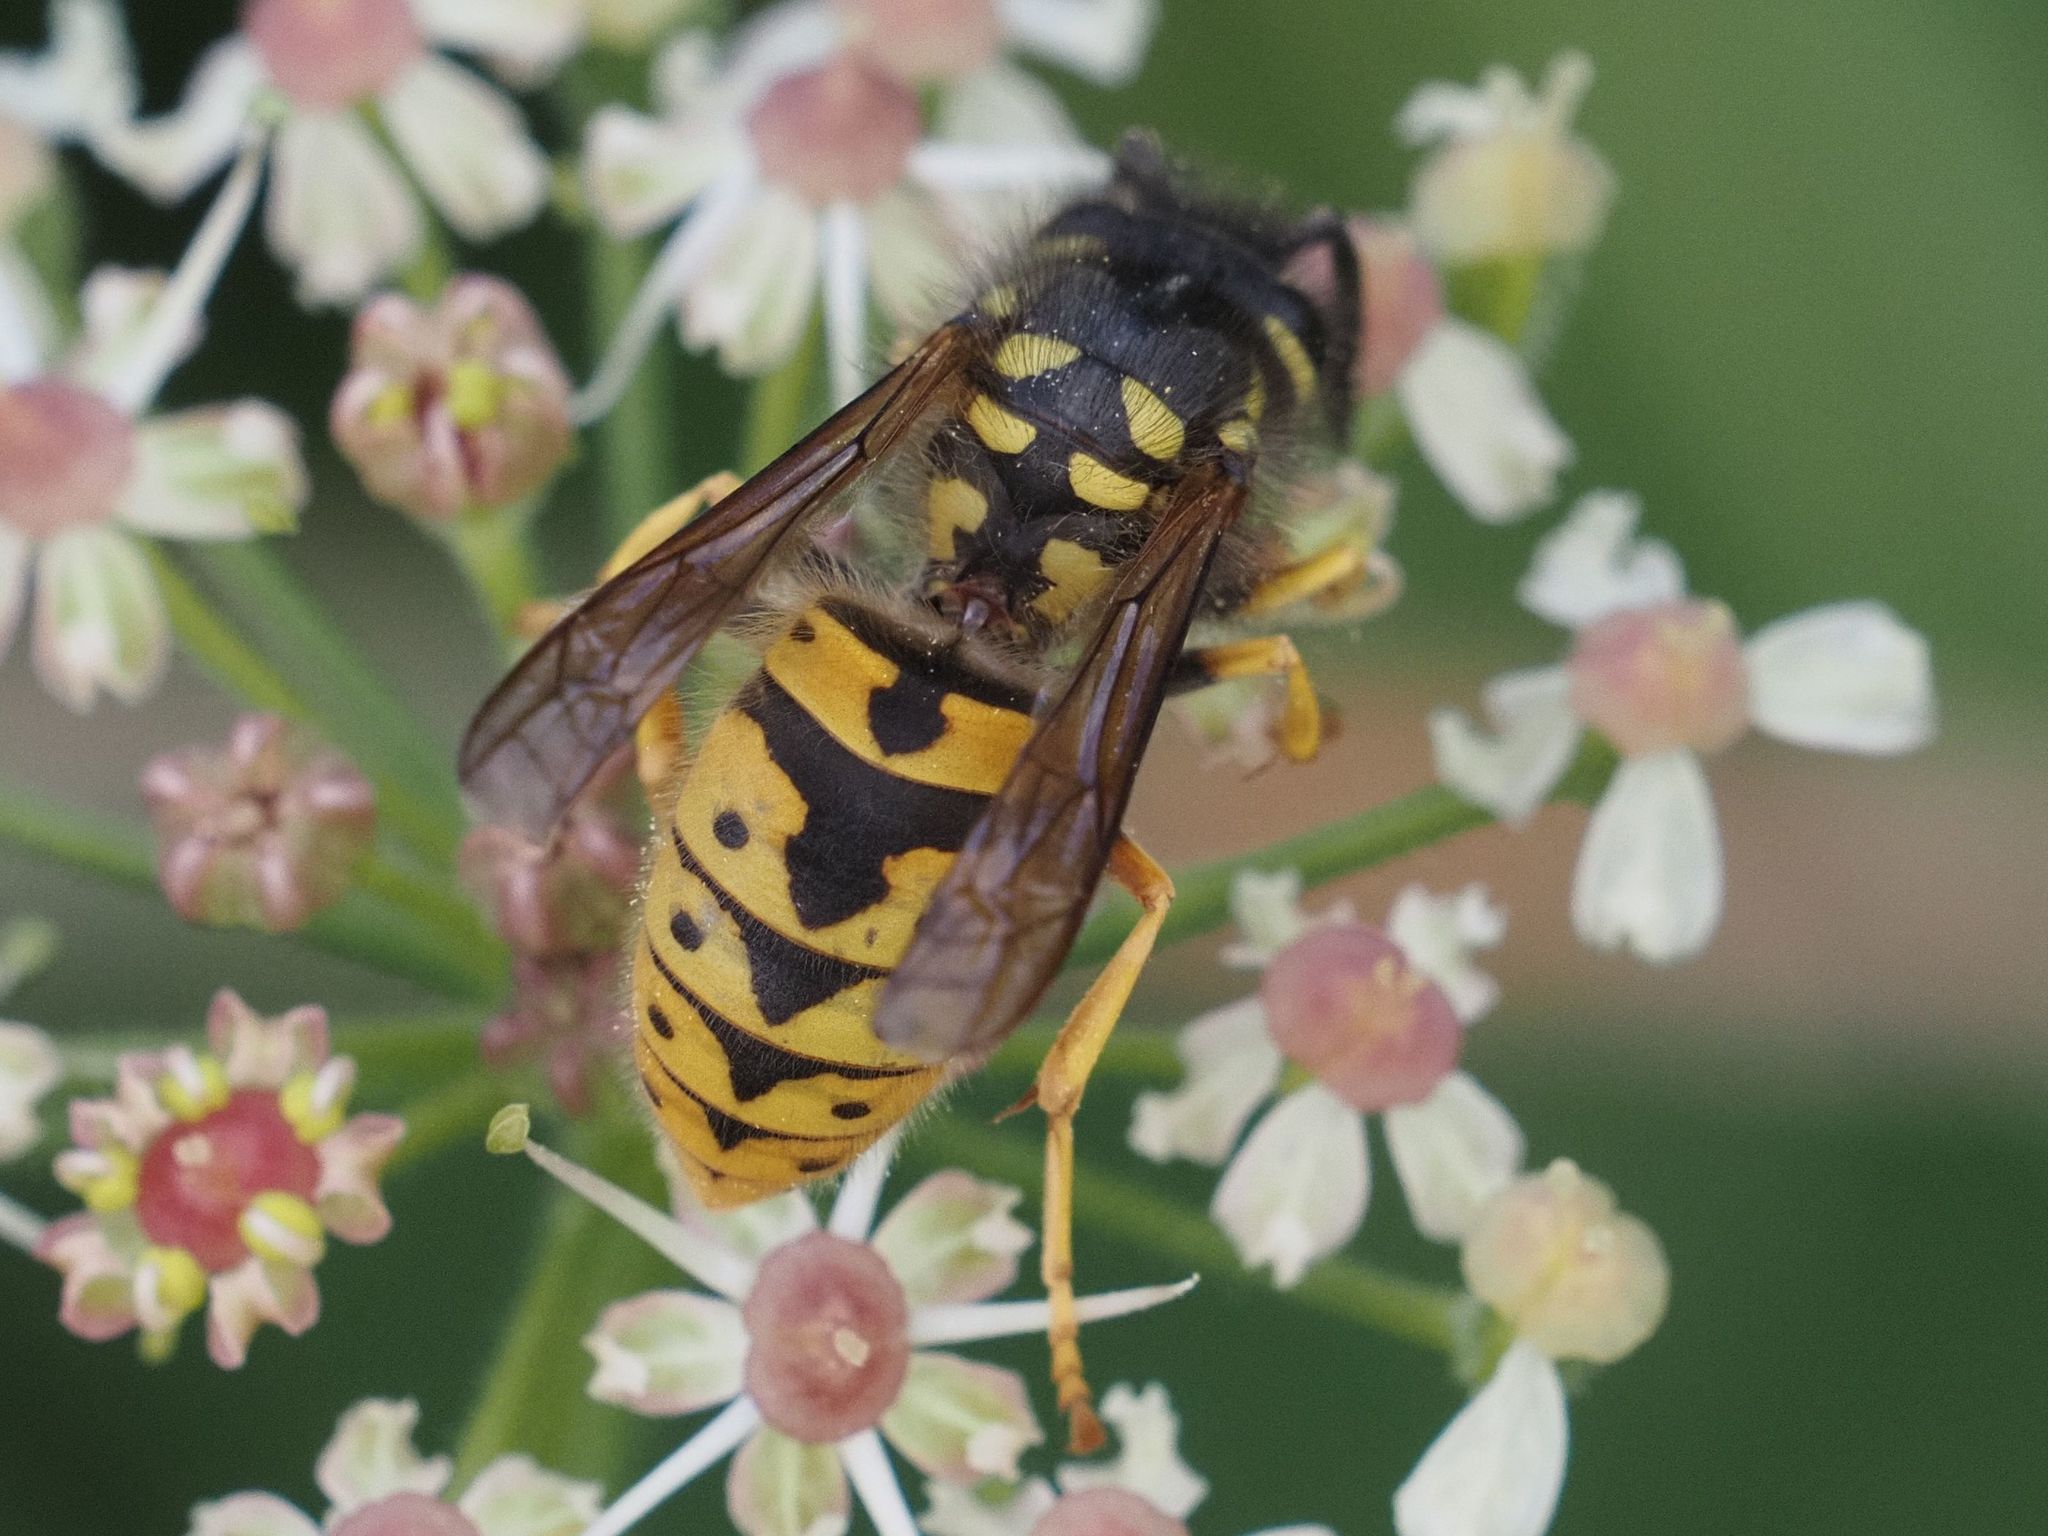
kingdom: Animalia
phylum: Arthropoda
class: Insecta
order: Hymenoptera
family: Vespidae
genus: Vespula
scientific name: Vespula germanica
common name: German wasp
